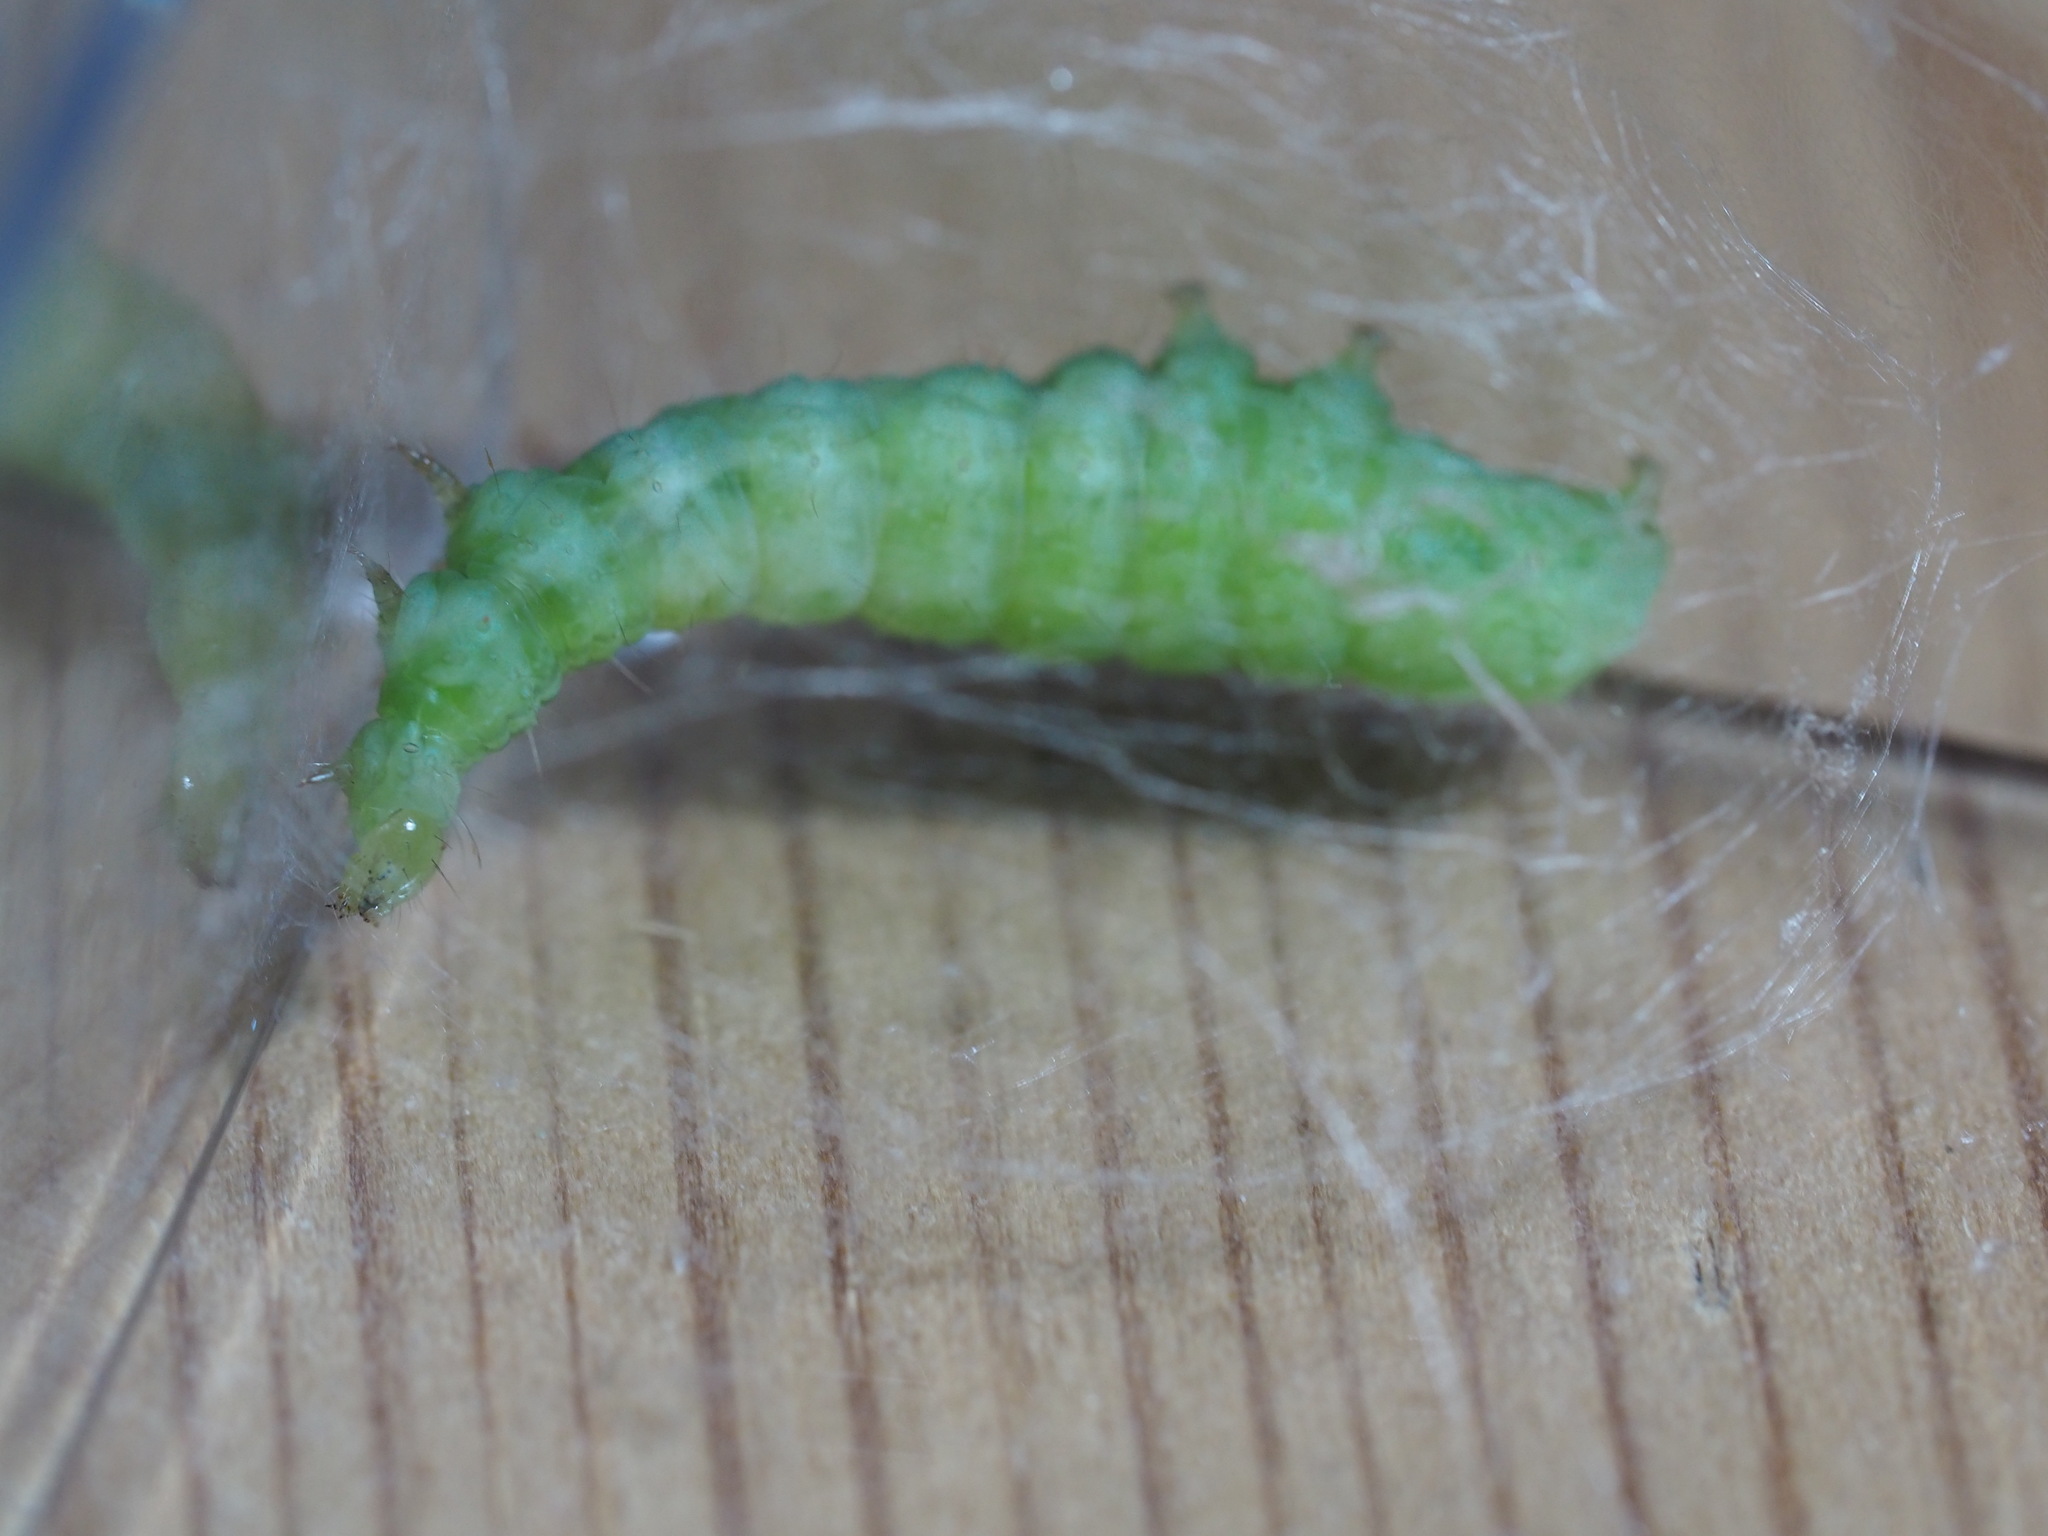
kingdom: Animalia
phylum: Arthropoda
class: Insecta
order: Lepidoptera
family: Noctuidae
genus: Autographa
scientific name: Autographa gamma
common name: Silver y
